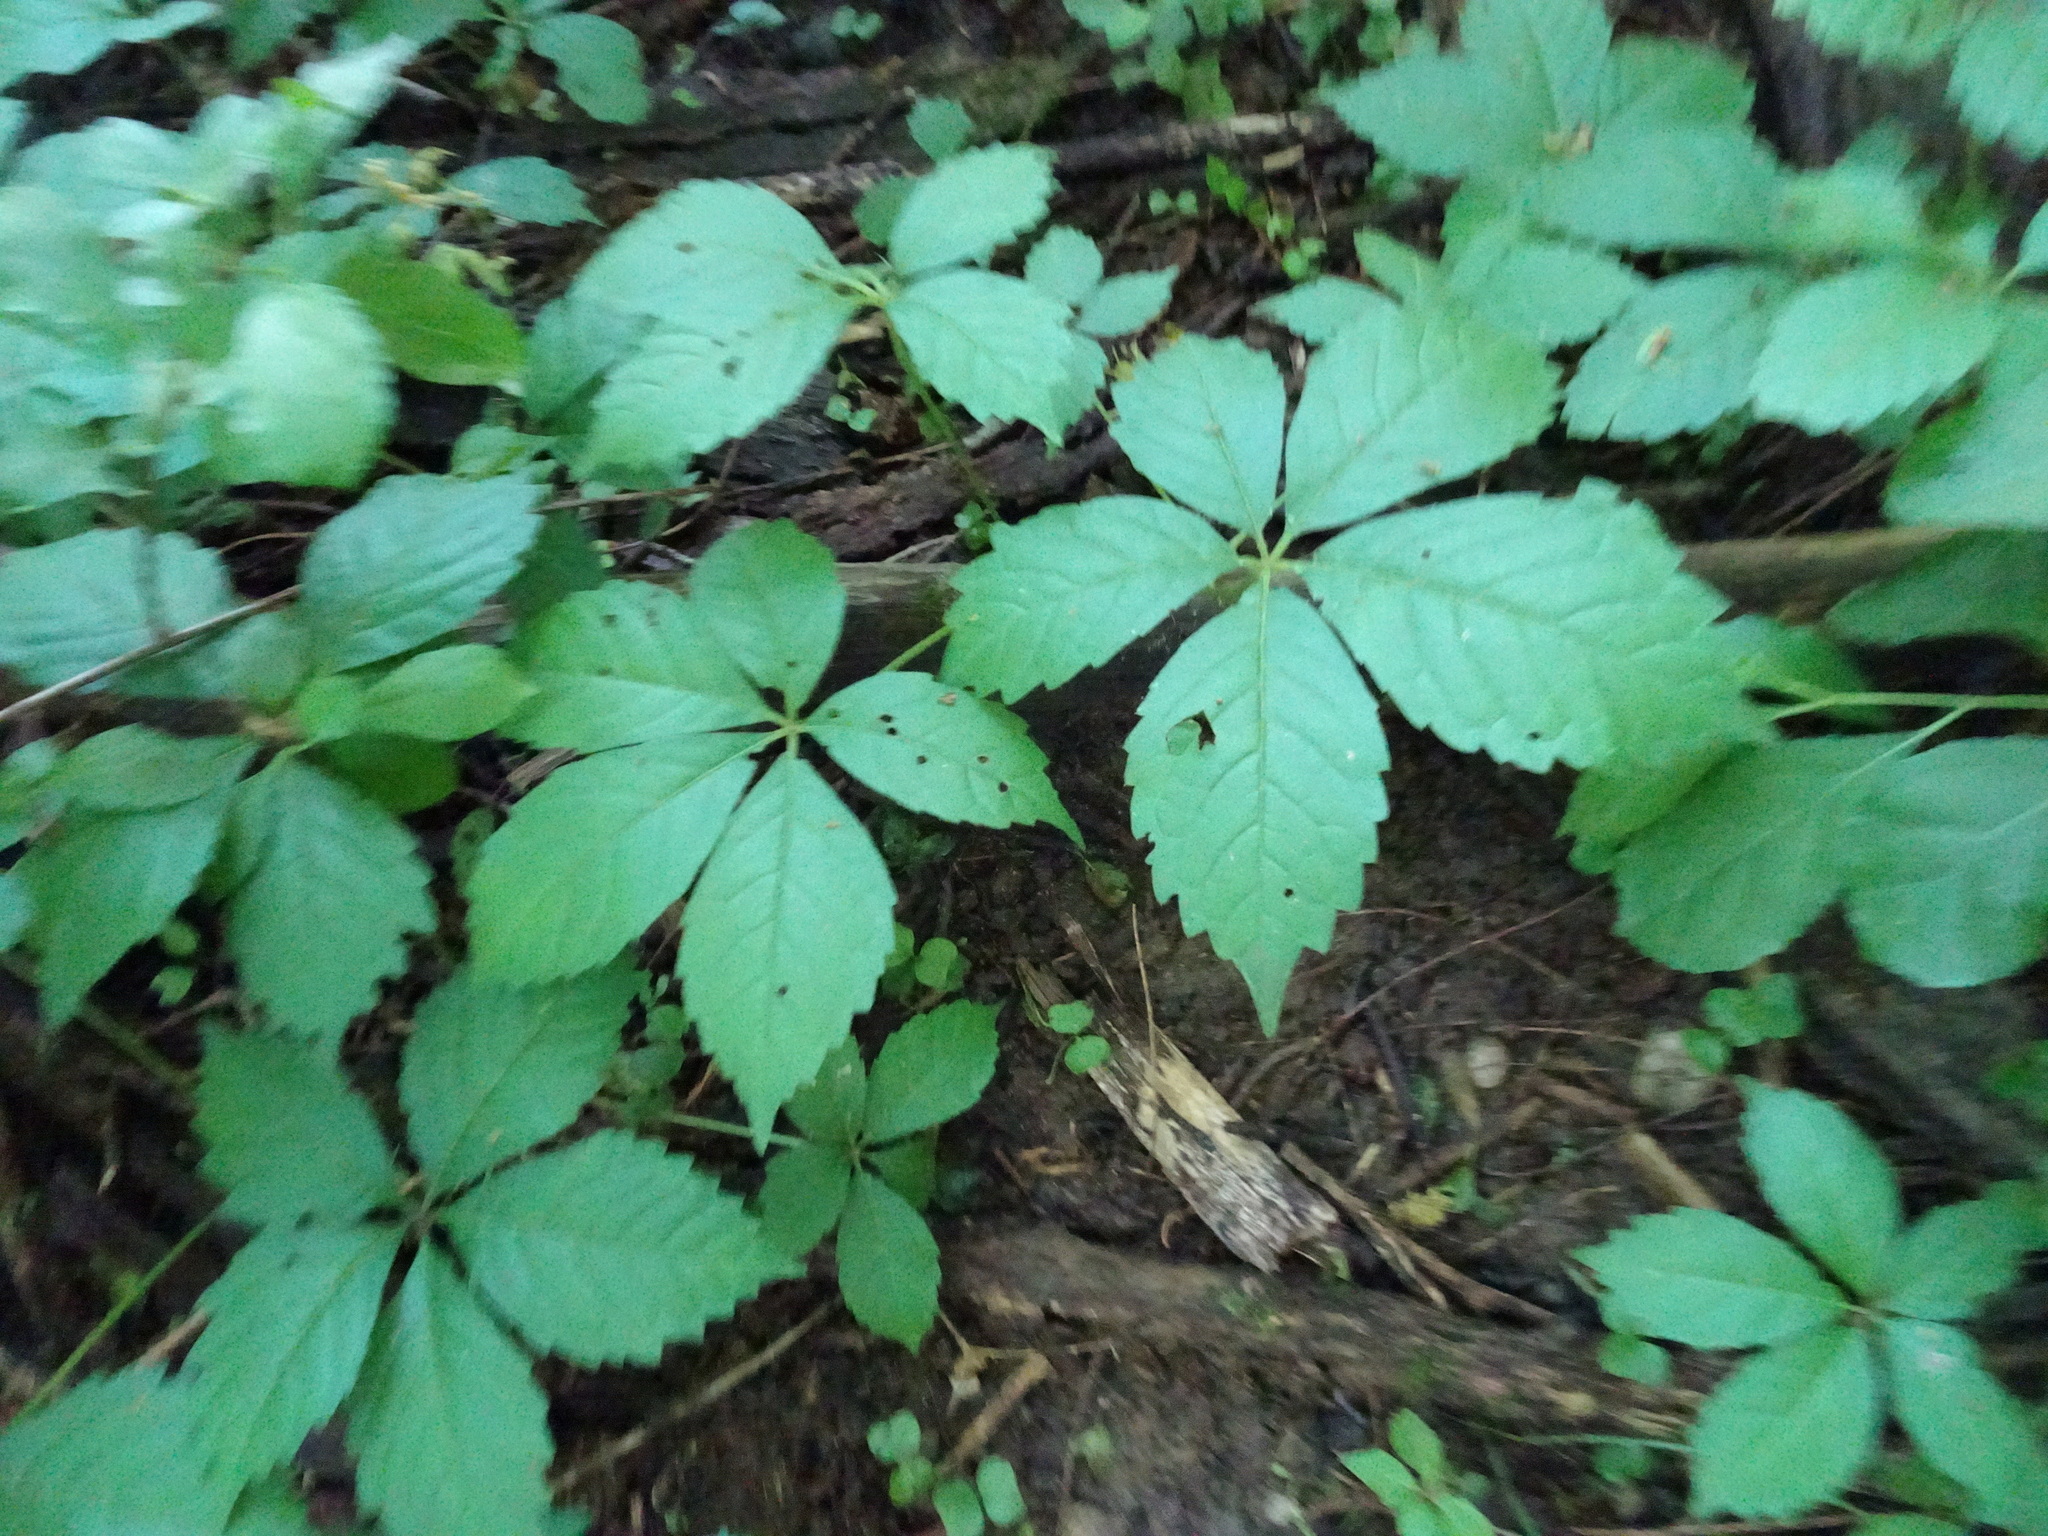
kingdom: Plantae
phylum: Tracheophyta
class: Magnoliopsida
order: Vitales
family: Vitaceae
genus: Parthenocissus
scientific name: Parthenocissus quinquefolia
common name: Virginia-creeper
